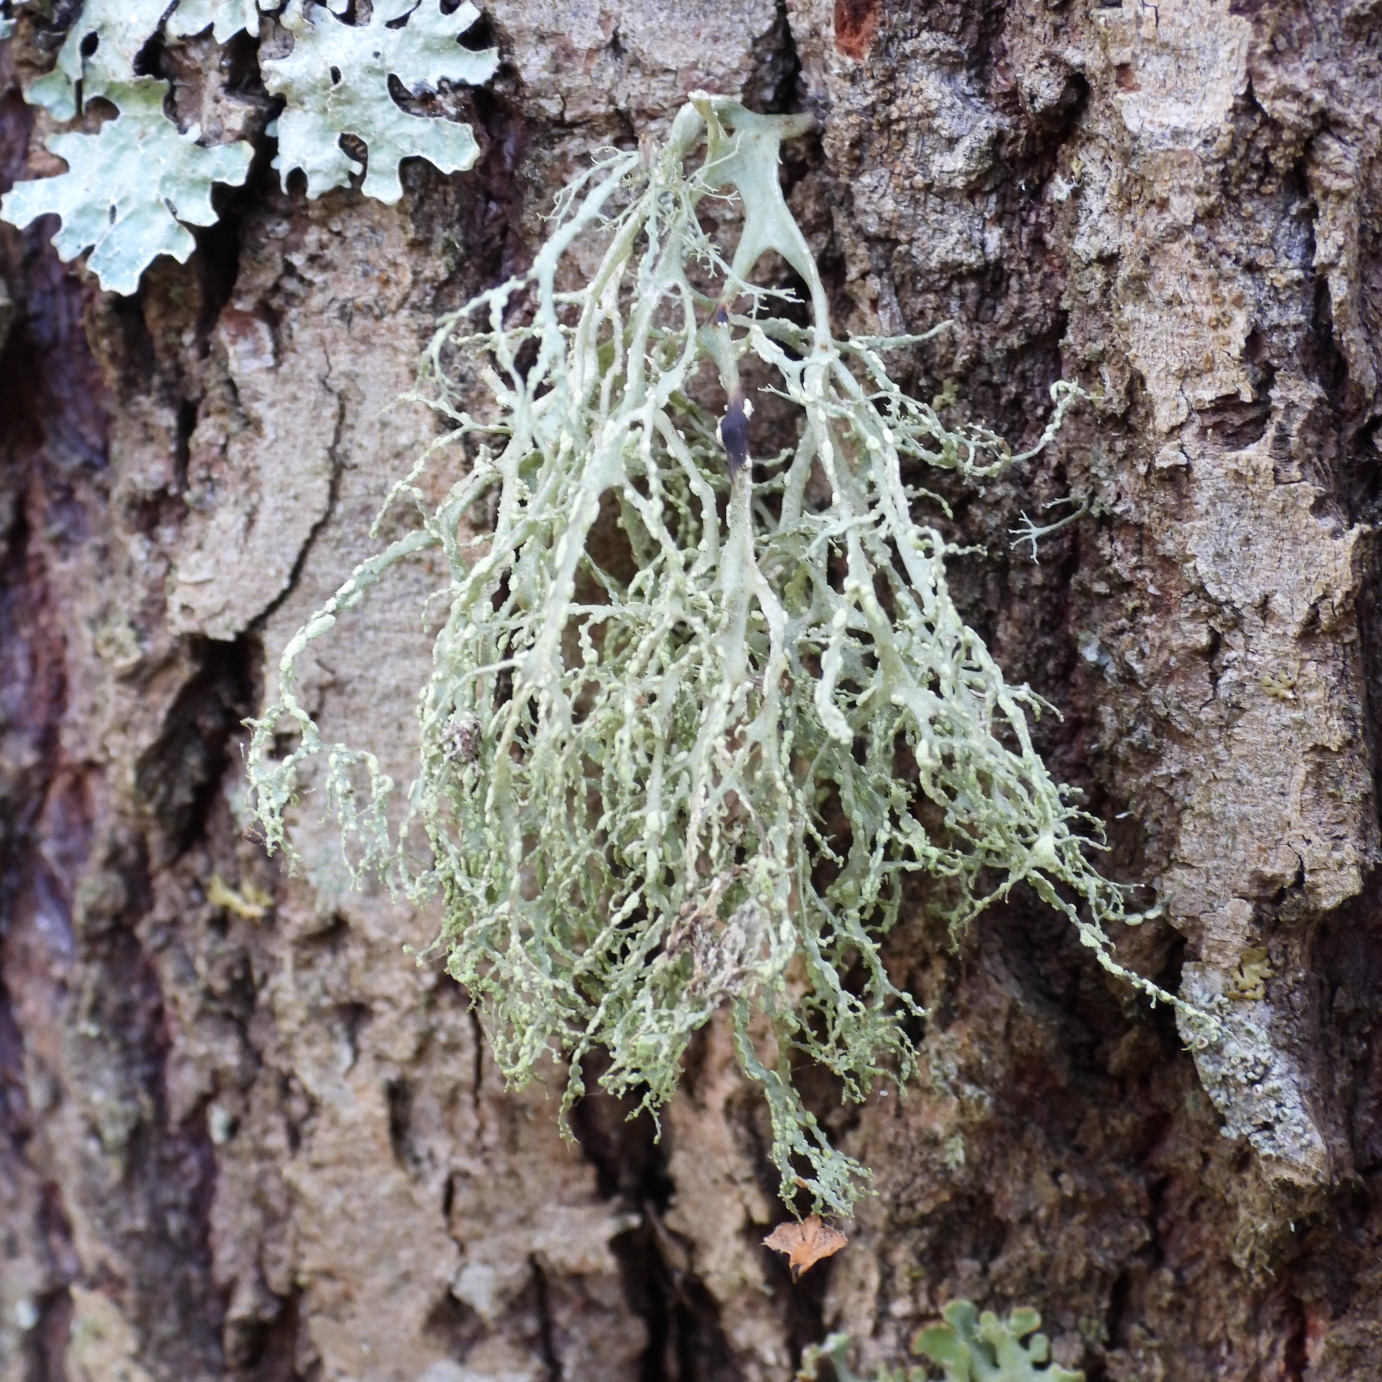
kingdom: Fungi
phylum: Ascomycota
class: Lecanoromycetes
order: Lecanorales
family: Ramalinaceae
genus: Ramalina
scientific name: Ramalina farinacea
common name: Farinose cartilage lichen
